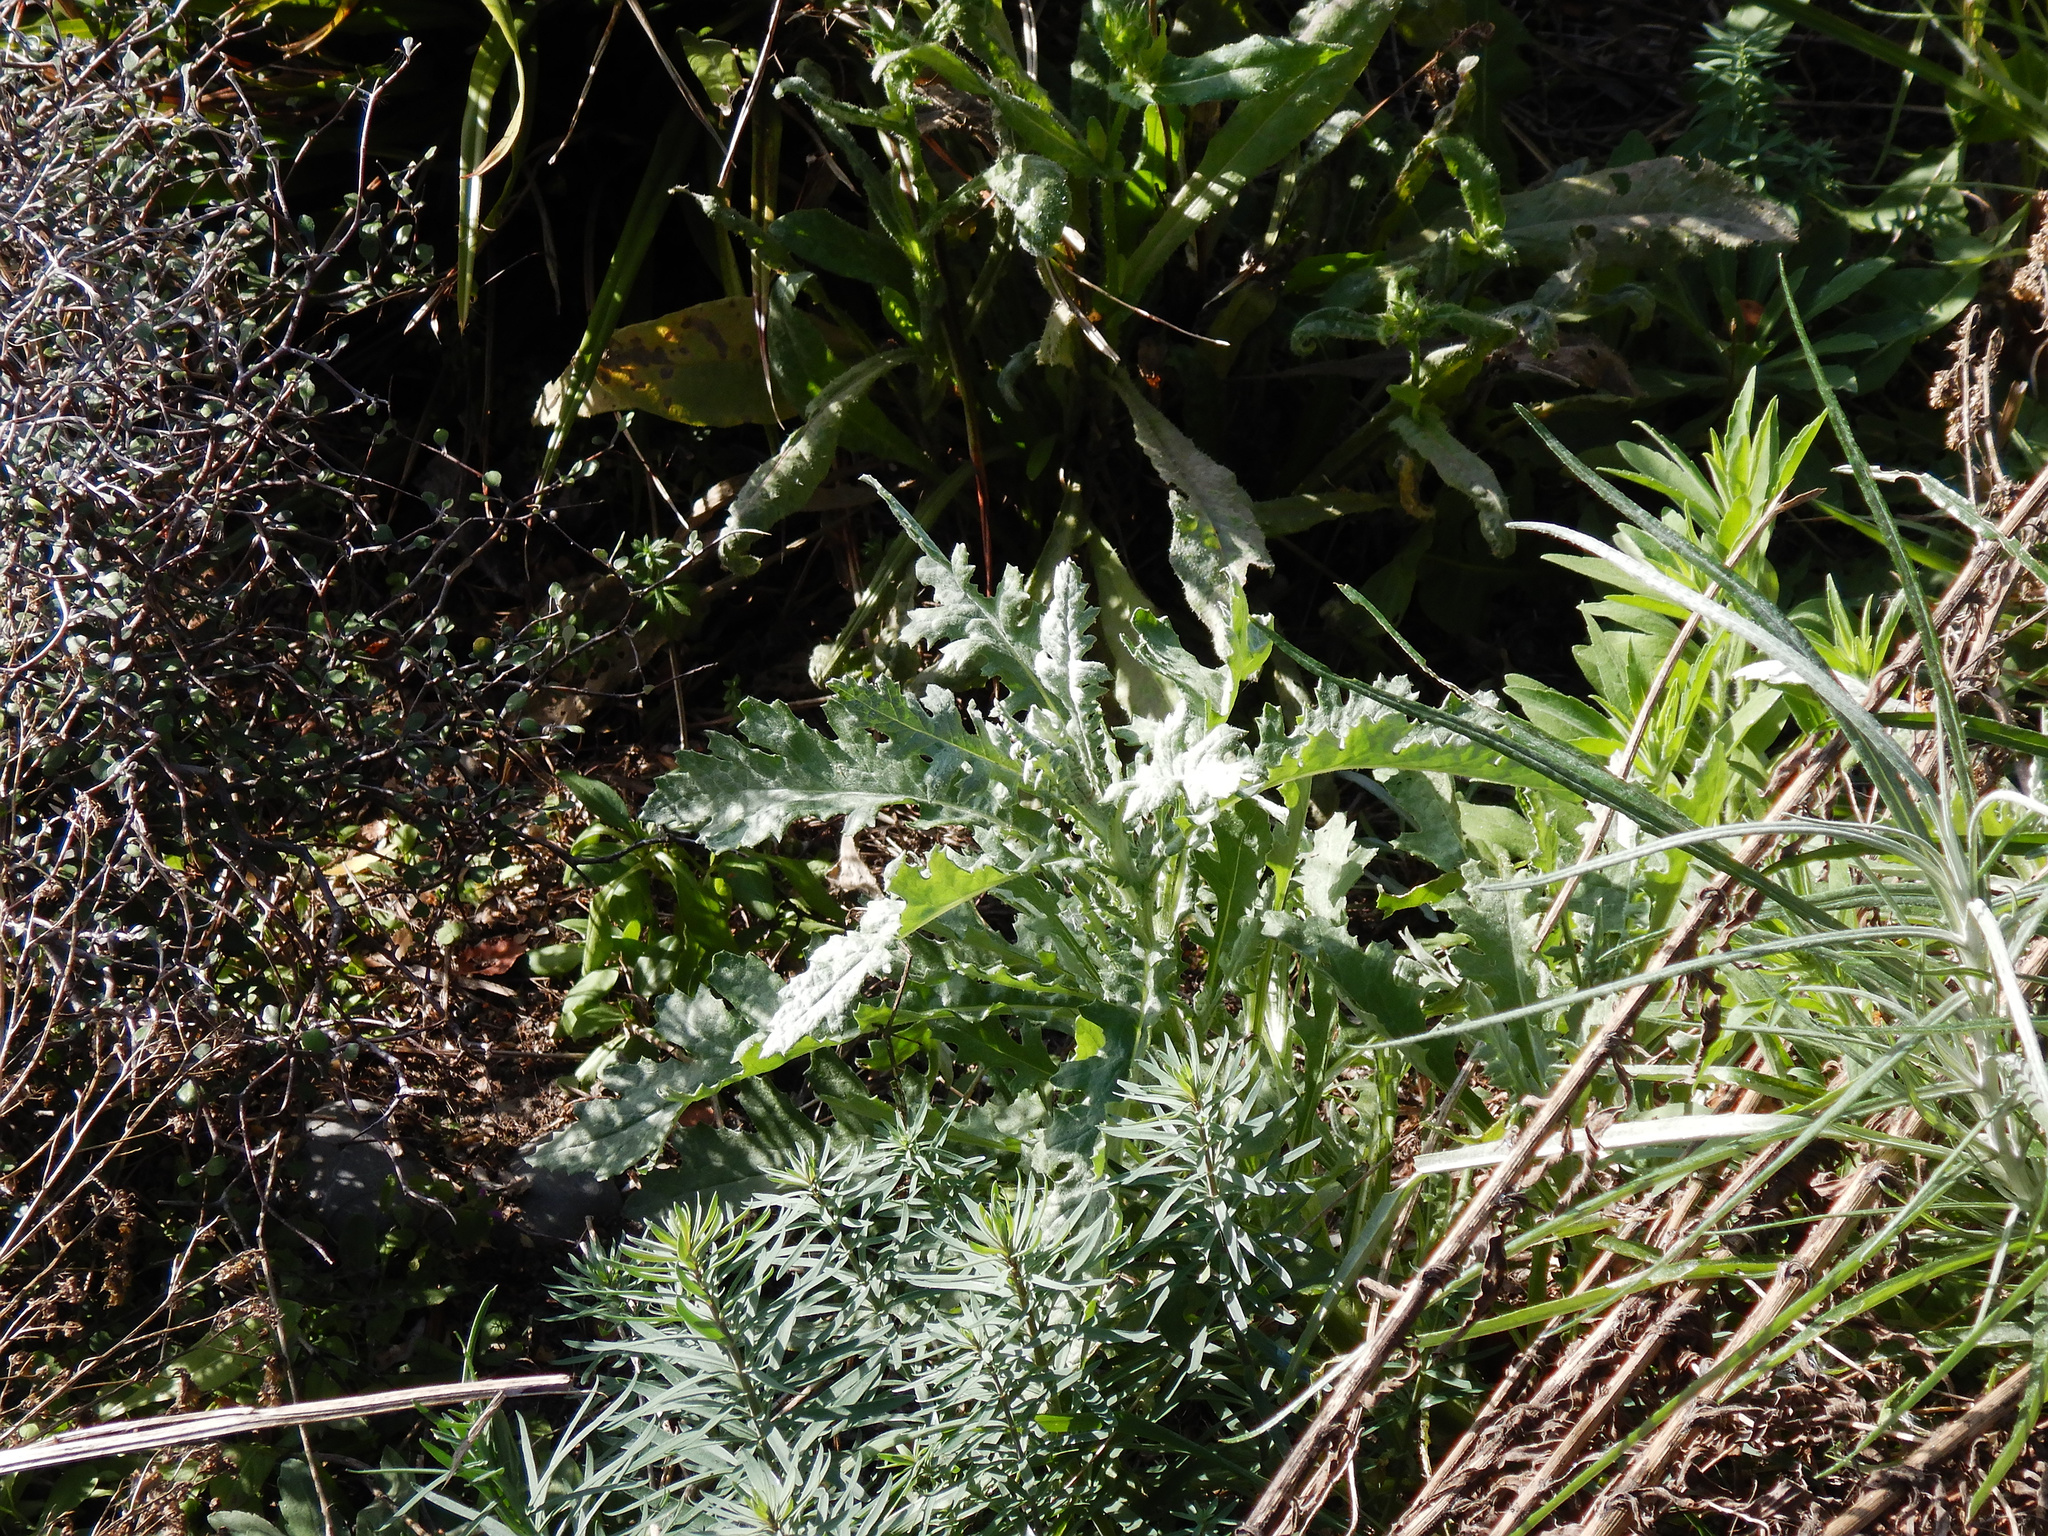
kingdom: Plantae
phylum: Tracheophyta
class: Magnoliopsida
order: Asterales
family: Asteraceae
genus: Senecio
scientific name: Senecio glomeratus
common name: Cutleaf burnweed
